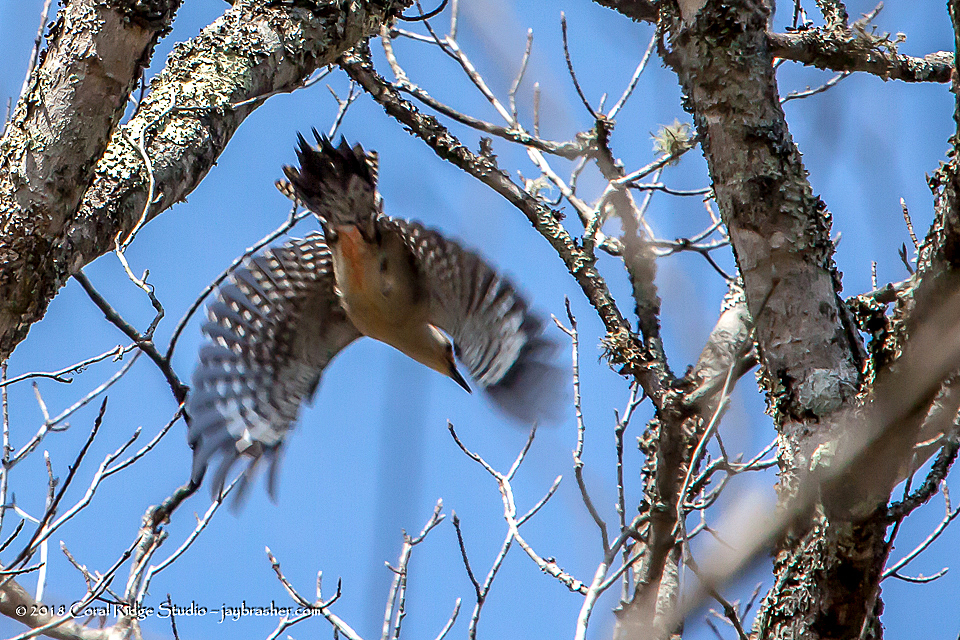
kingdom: Animalia
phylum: Chordata
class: Aves
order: Piciformes
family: Picidae
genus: Melanerpes
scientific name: Melanerpes carolinus
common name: Red-bellied woodpecker
